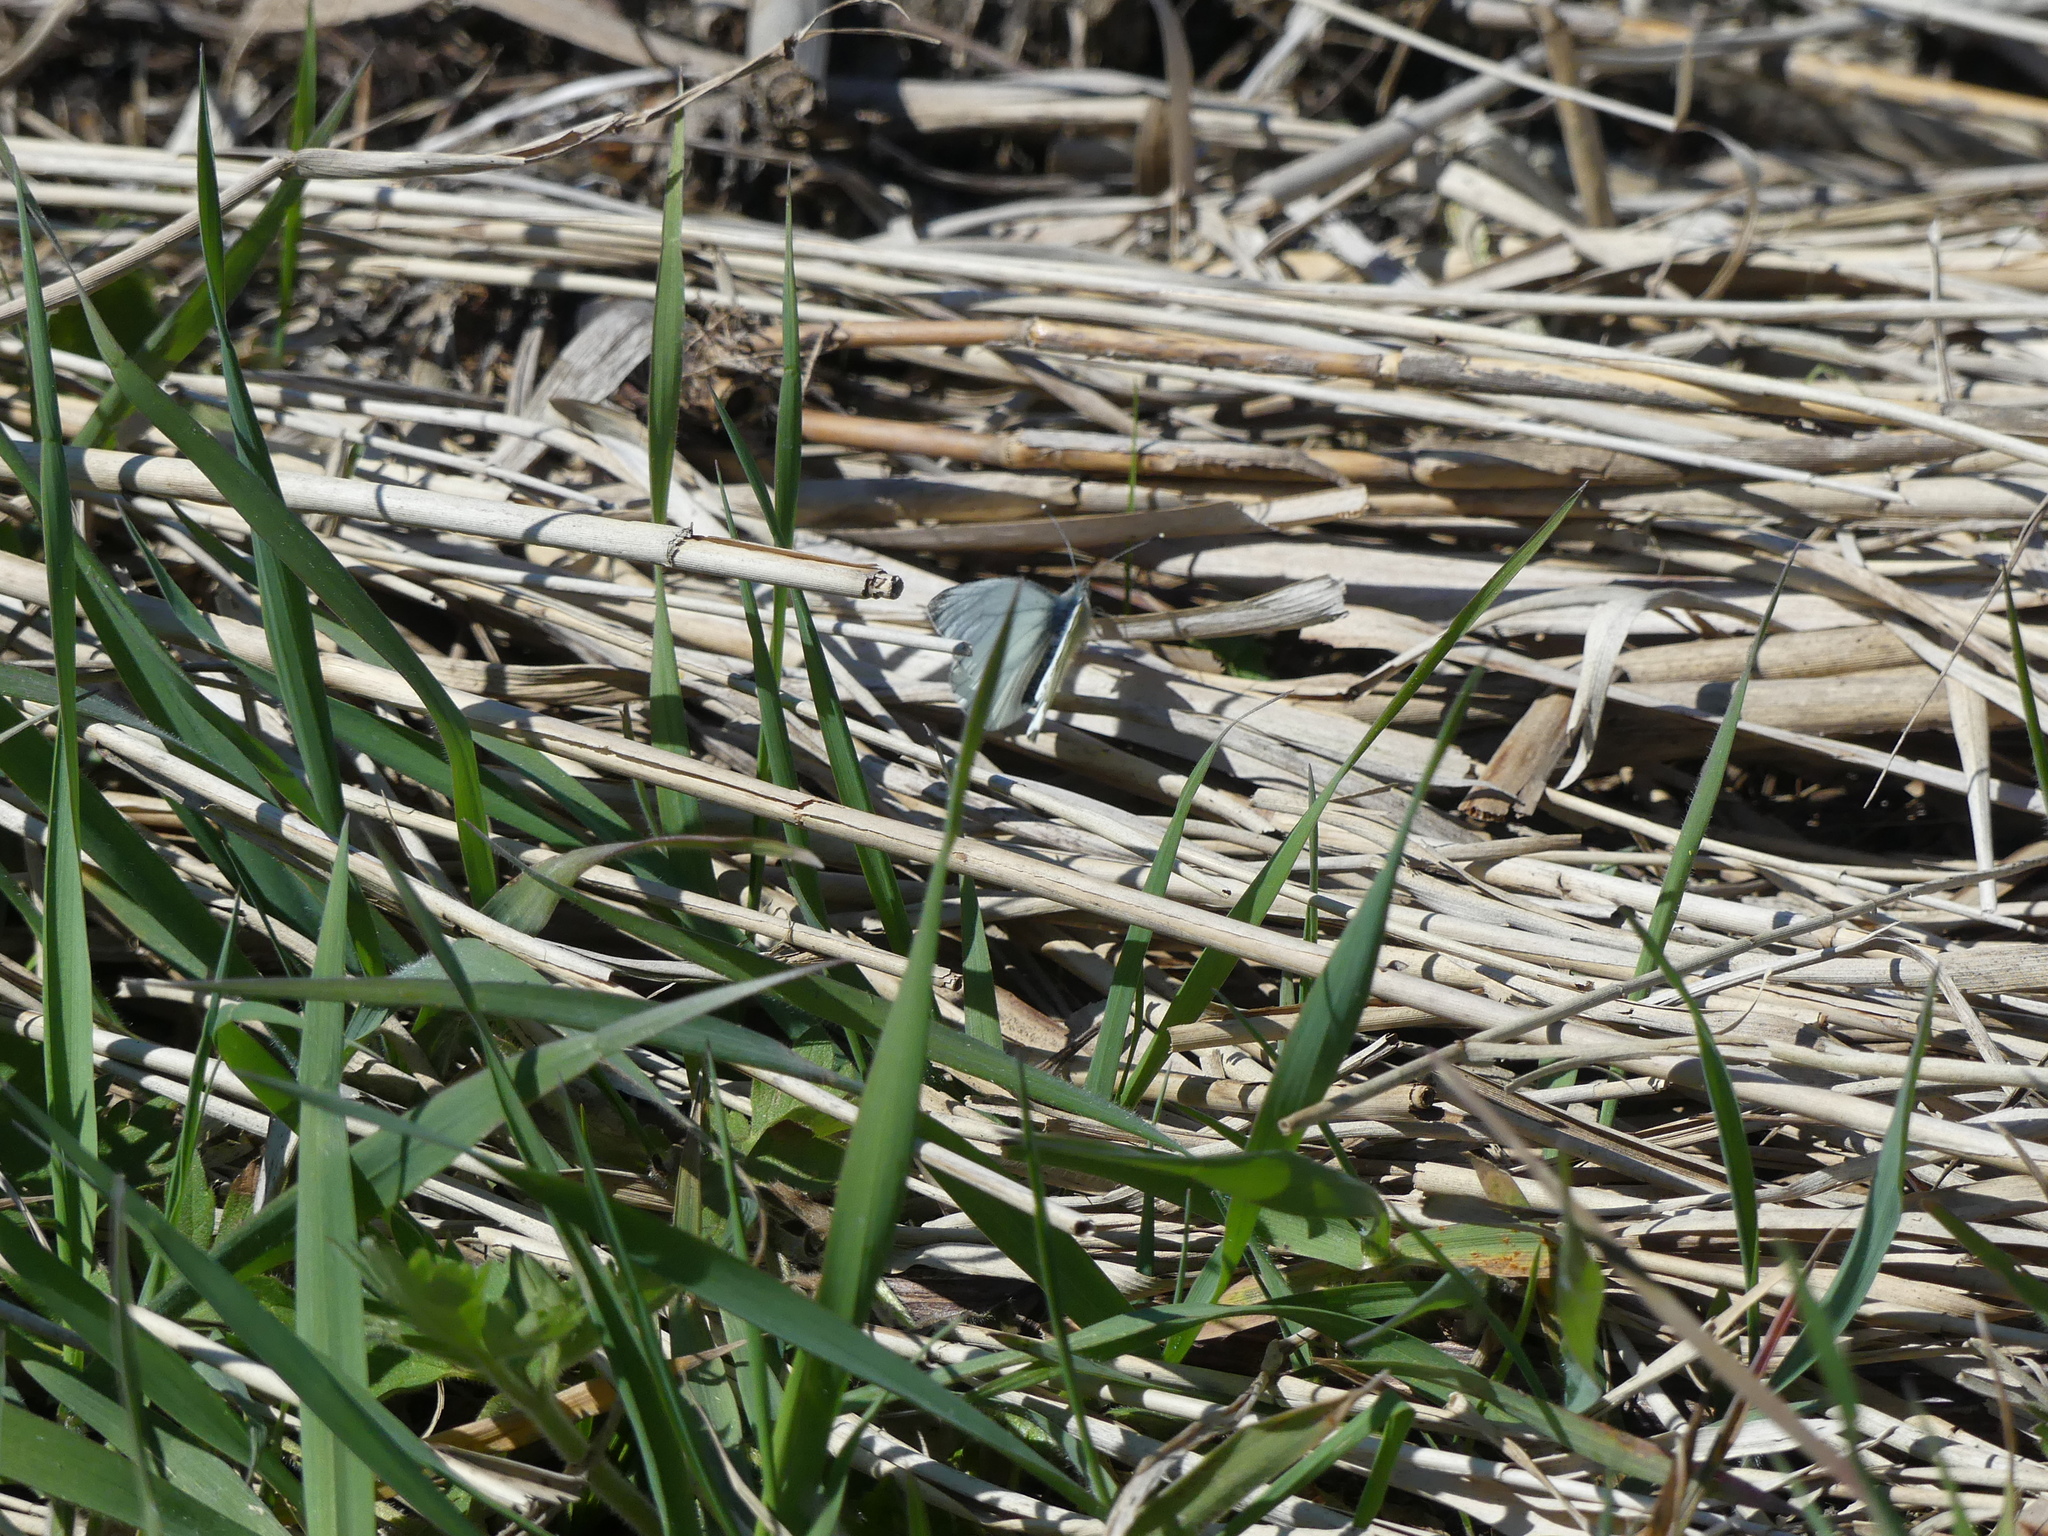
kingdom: Animalia
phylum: Arthropoda
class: Insecta
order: Lepidoptera
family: Pieridae
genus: Pieris
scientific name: Pieris napi
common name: Green-veined white
